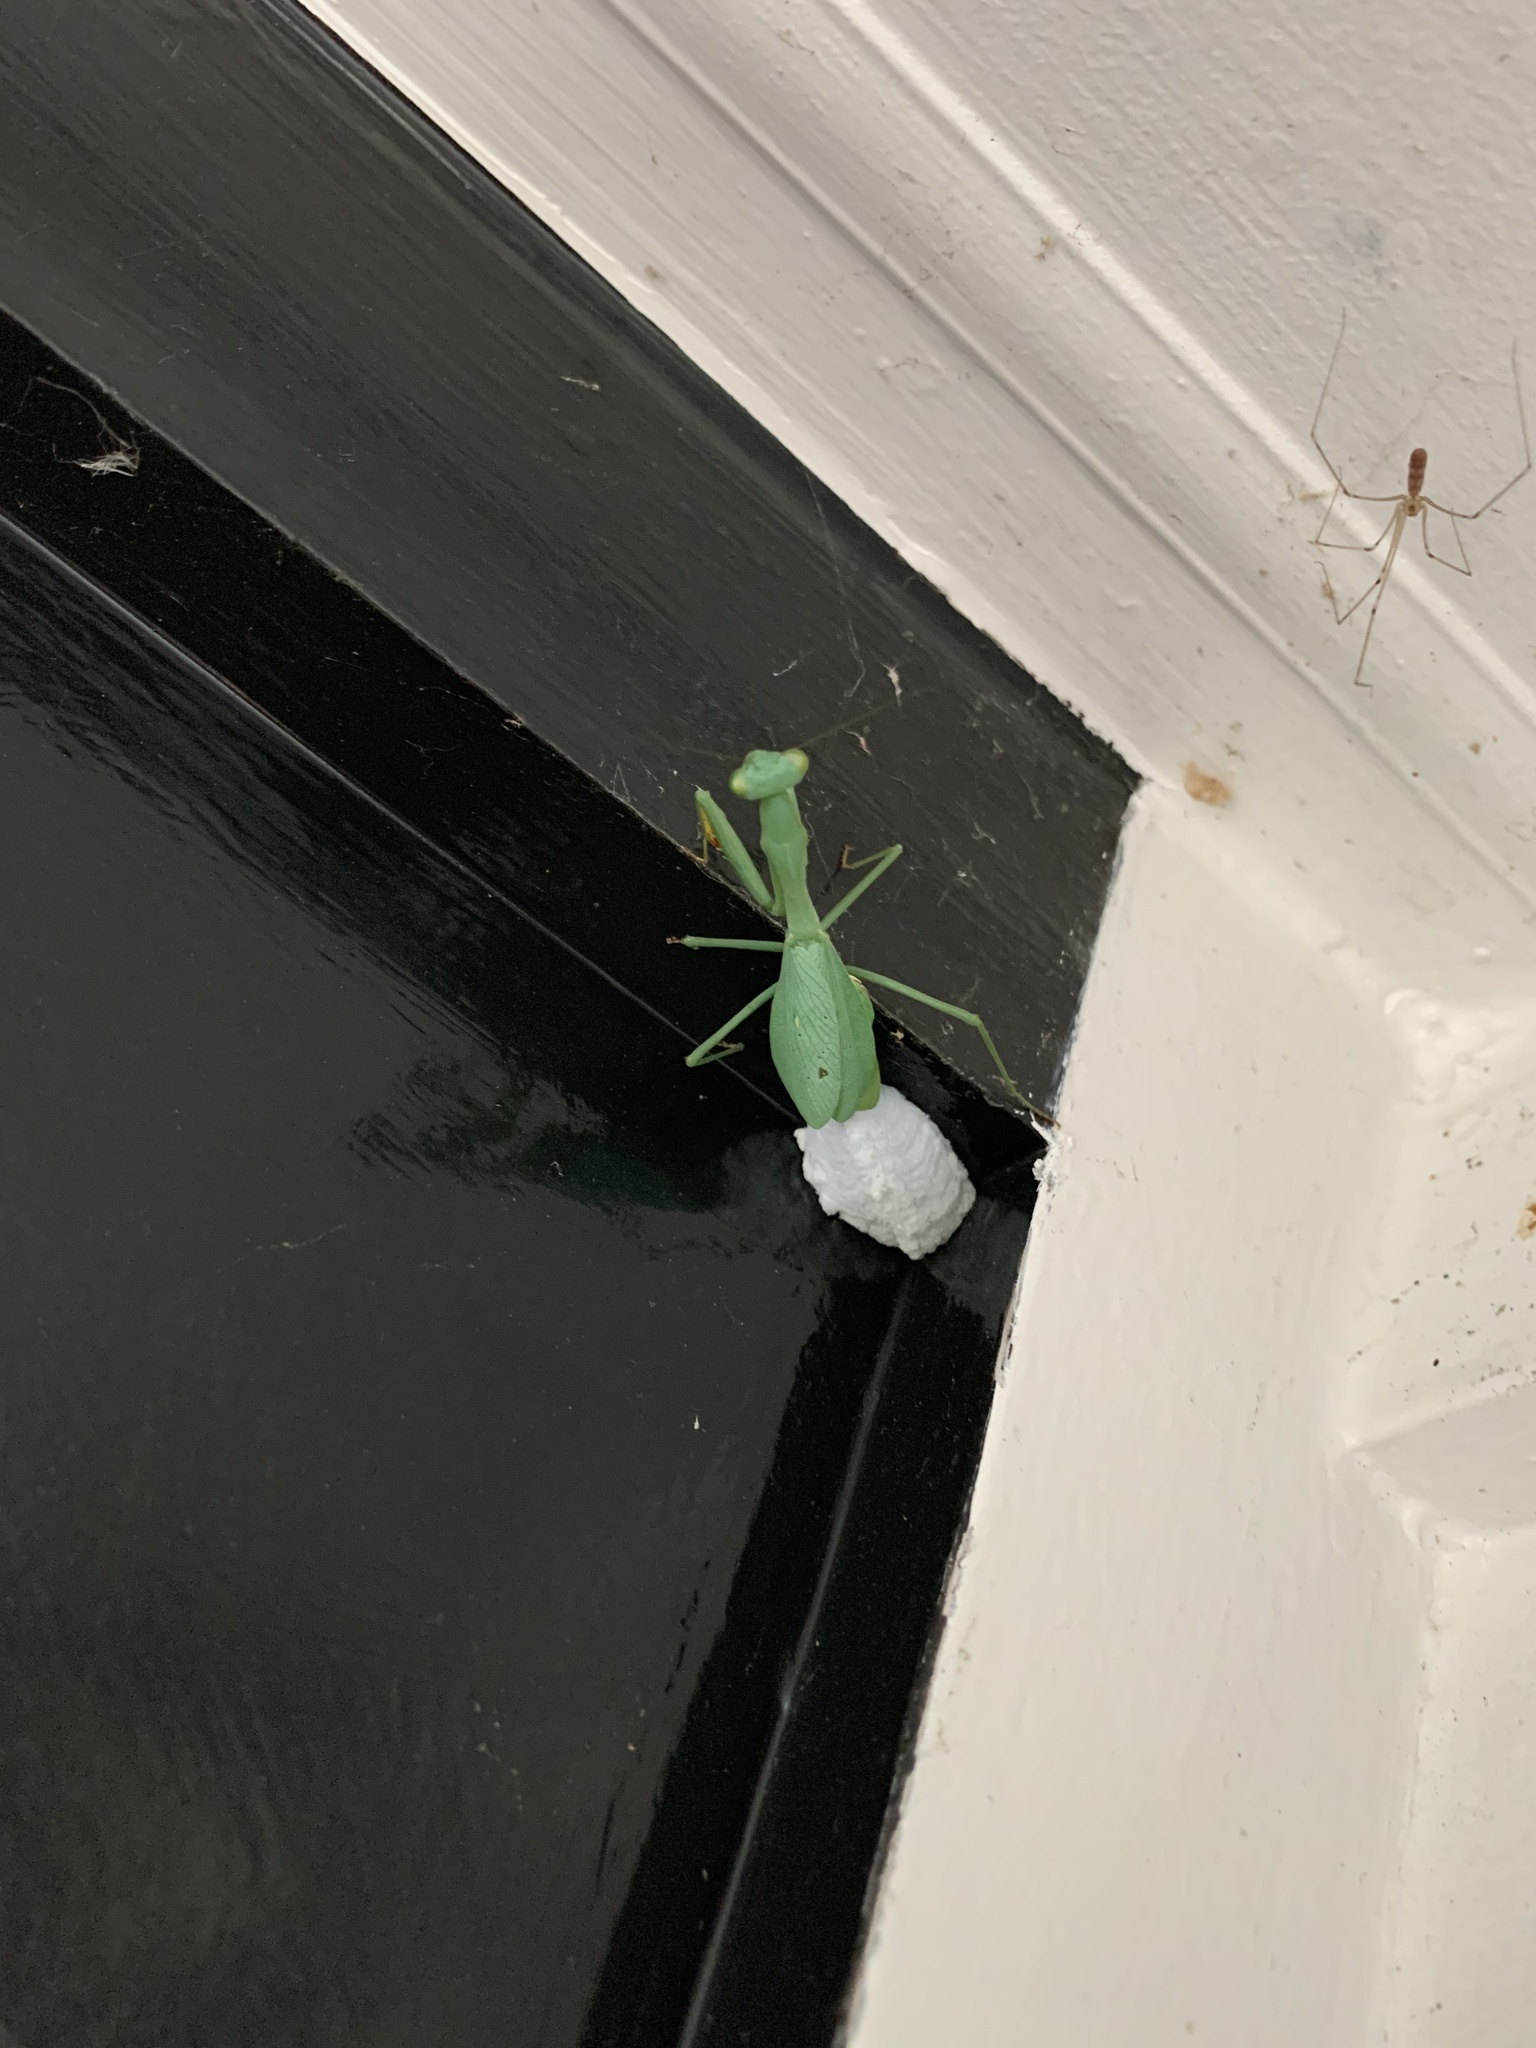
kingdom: Animalia
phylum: Arthropoda
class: Insecta
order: Mantodea
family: Miomantidae
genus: Miomantis
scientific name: Miomantis caffra
